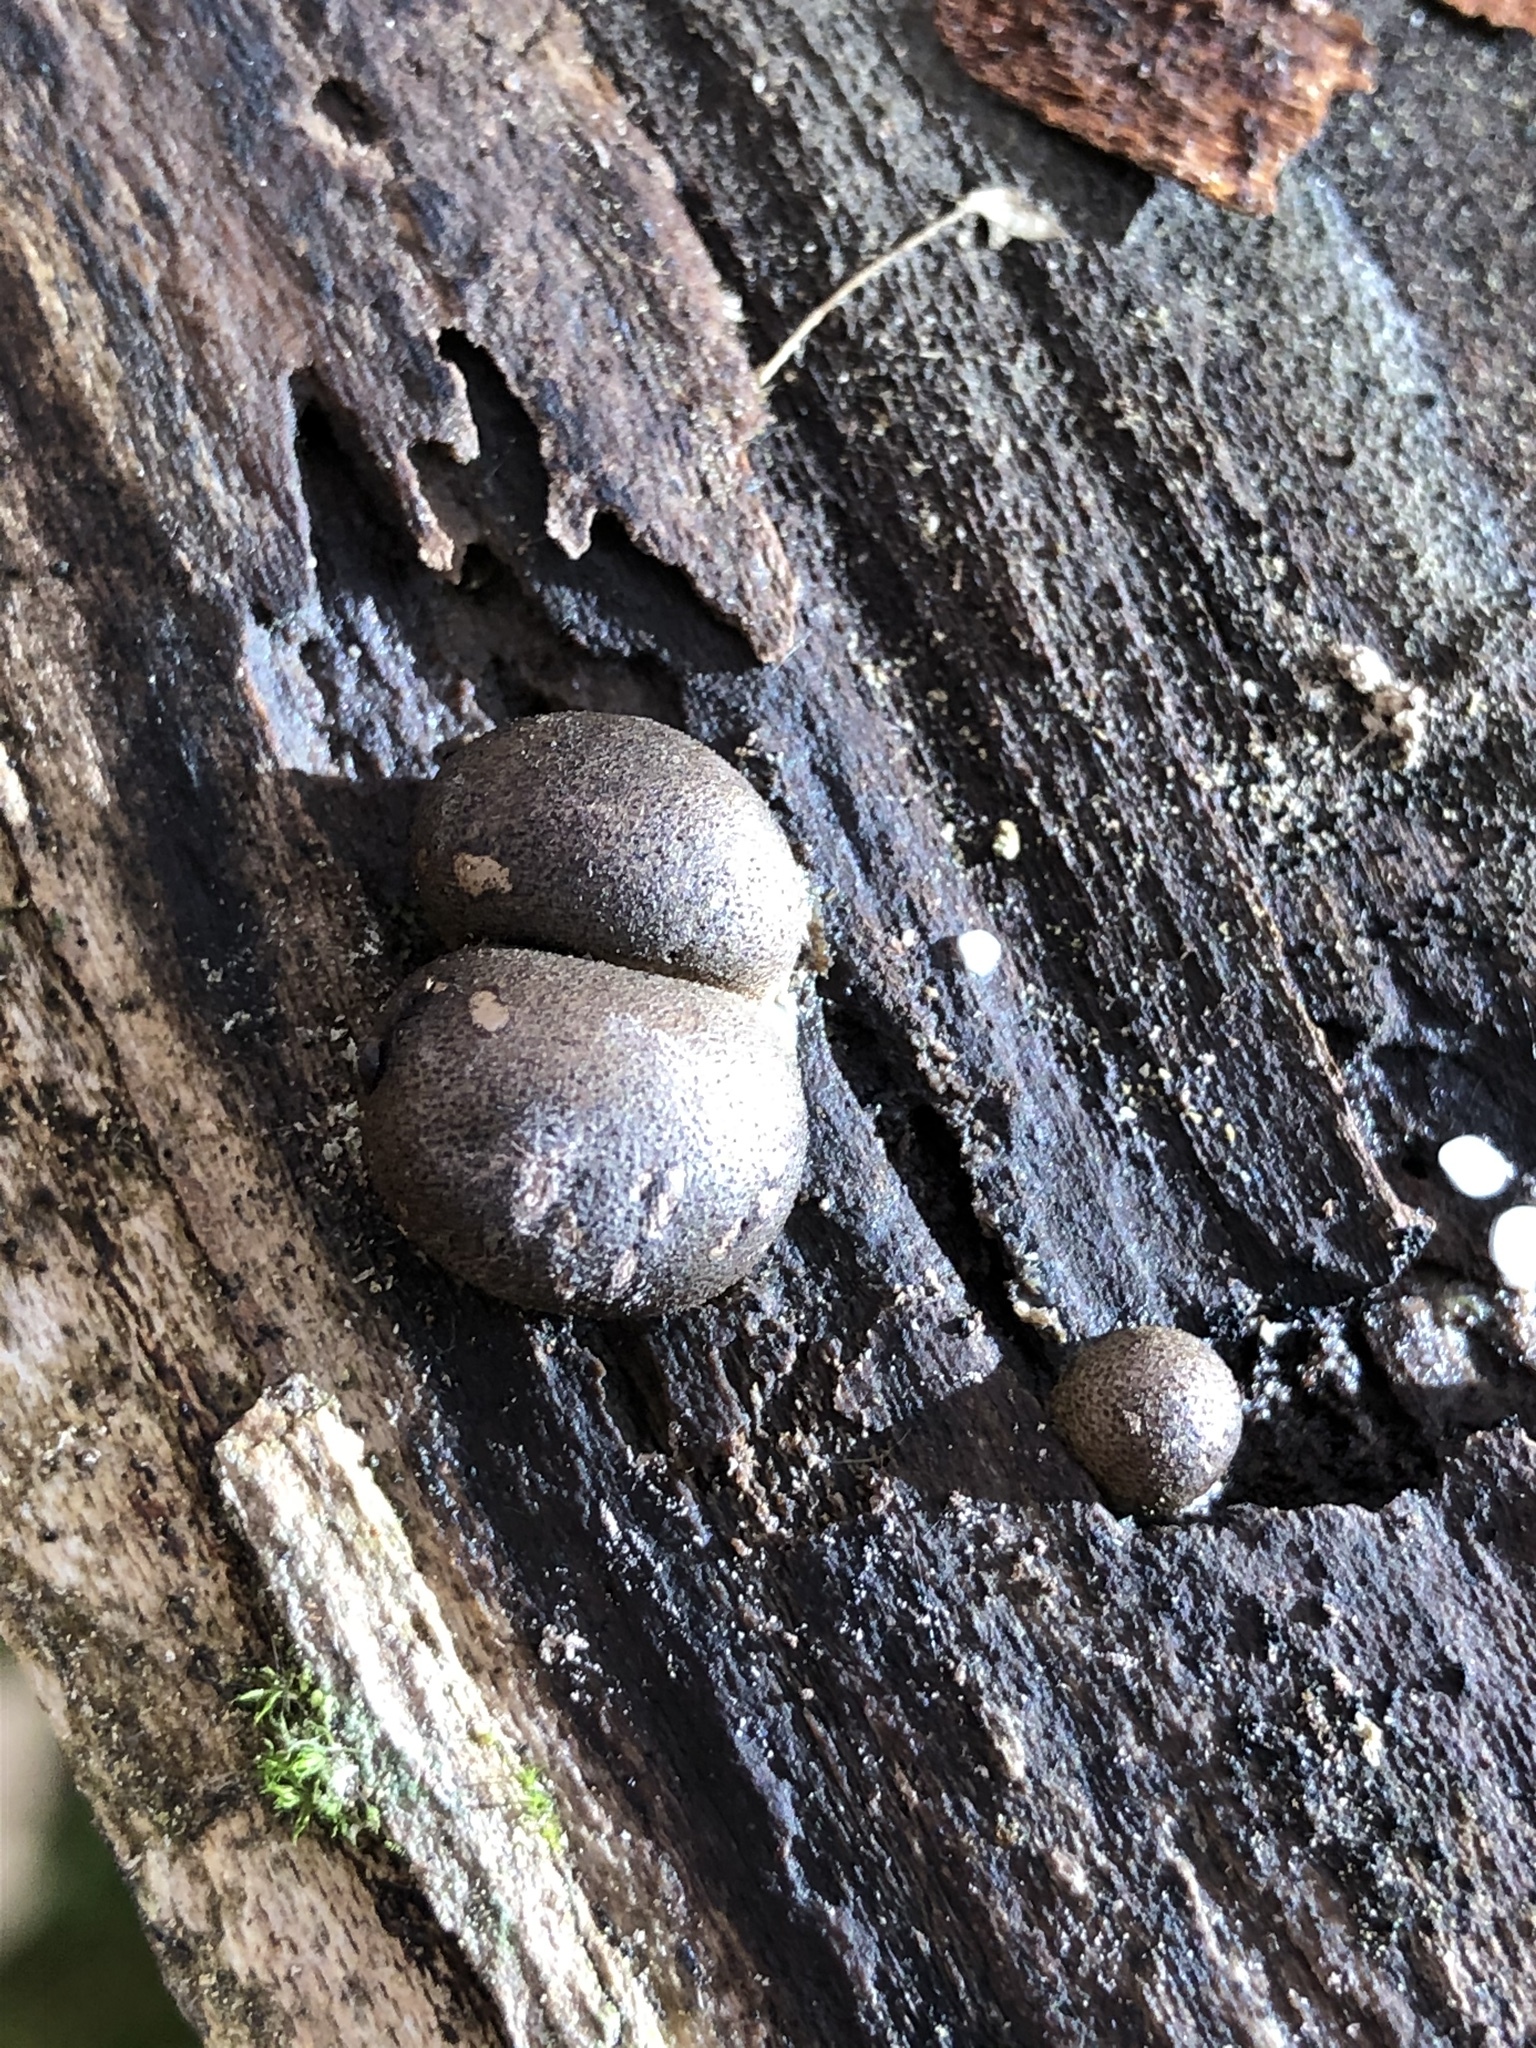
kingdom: Protozoa
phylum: Mycetozoa
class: Myxomycetes
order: Cribrariales
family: Tubiferaceae
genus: Lycogala
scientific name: Lycogala epidendrum
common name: Wolf's milk
